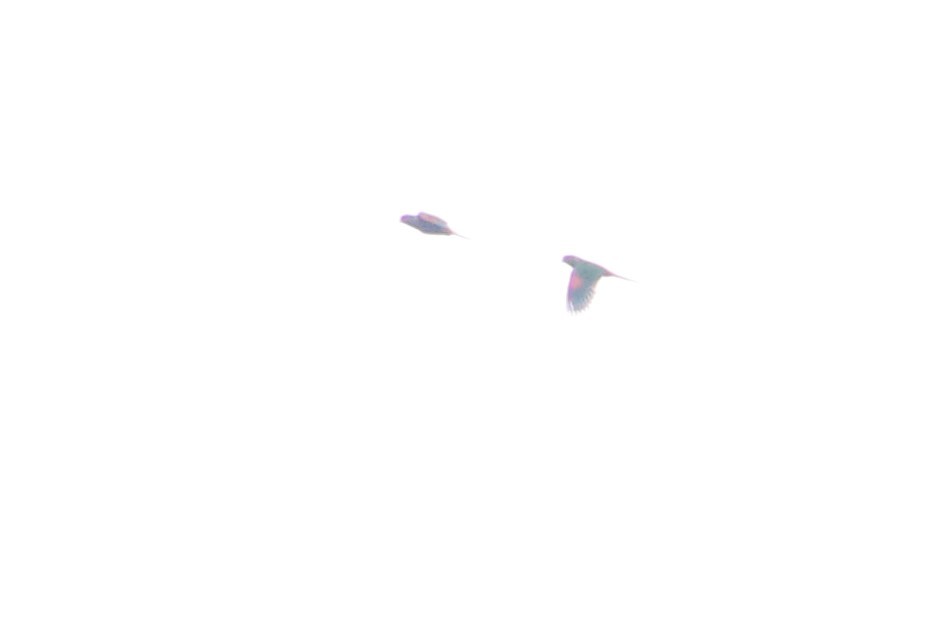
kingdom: Animalia
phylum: Chordata
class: Aves
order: Psittaciformes
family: Psittacidae
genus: Pionus
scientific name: Pionus chalcopterus
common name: Bronze-winged parrot
